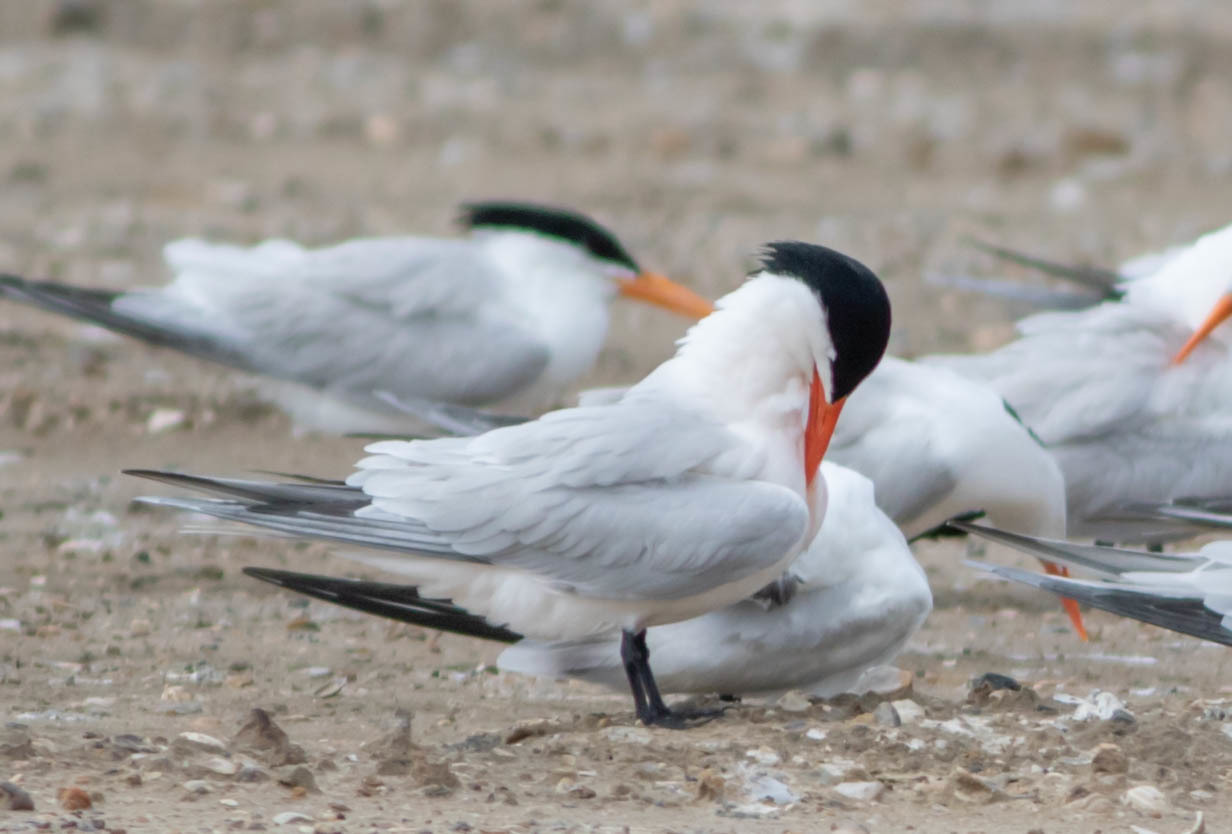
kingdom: Animalia
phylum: Chordata
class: Aves
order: Charadriiformes
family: Laridae
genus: Thalasseus
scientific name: Thalasseus maximus
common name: Royal tern
